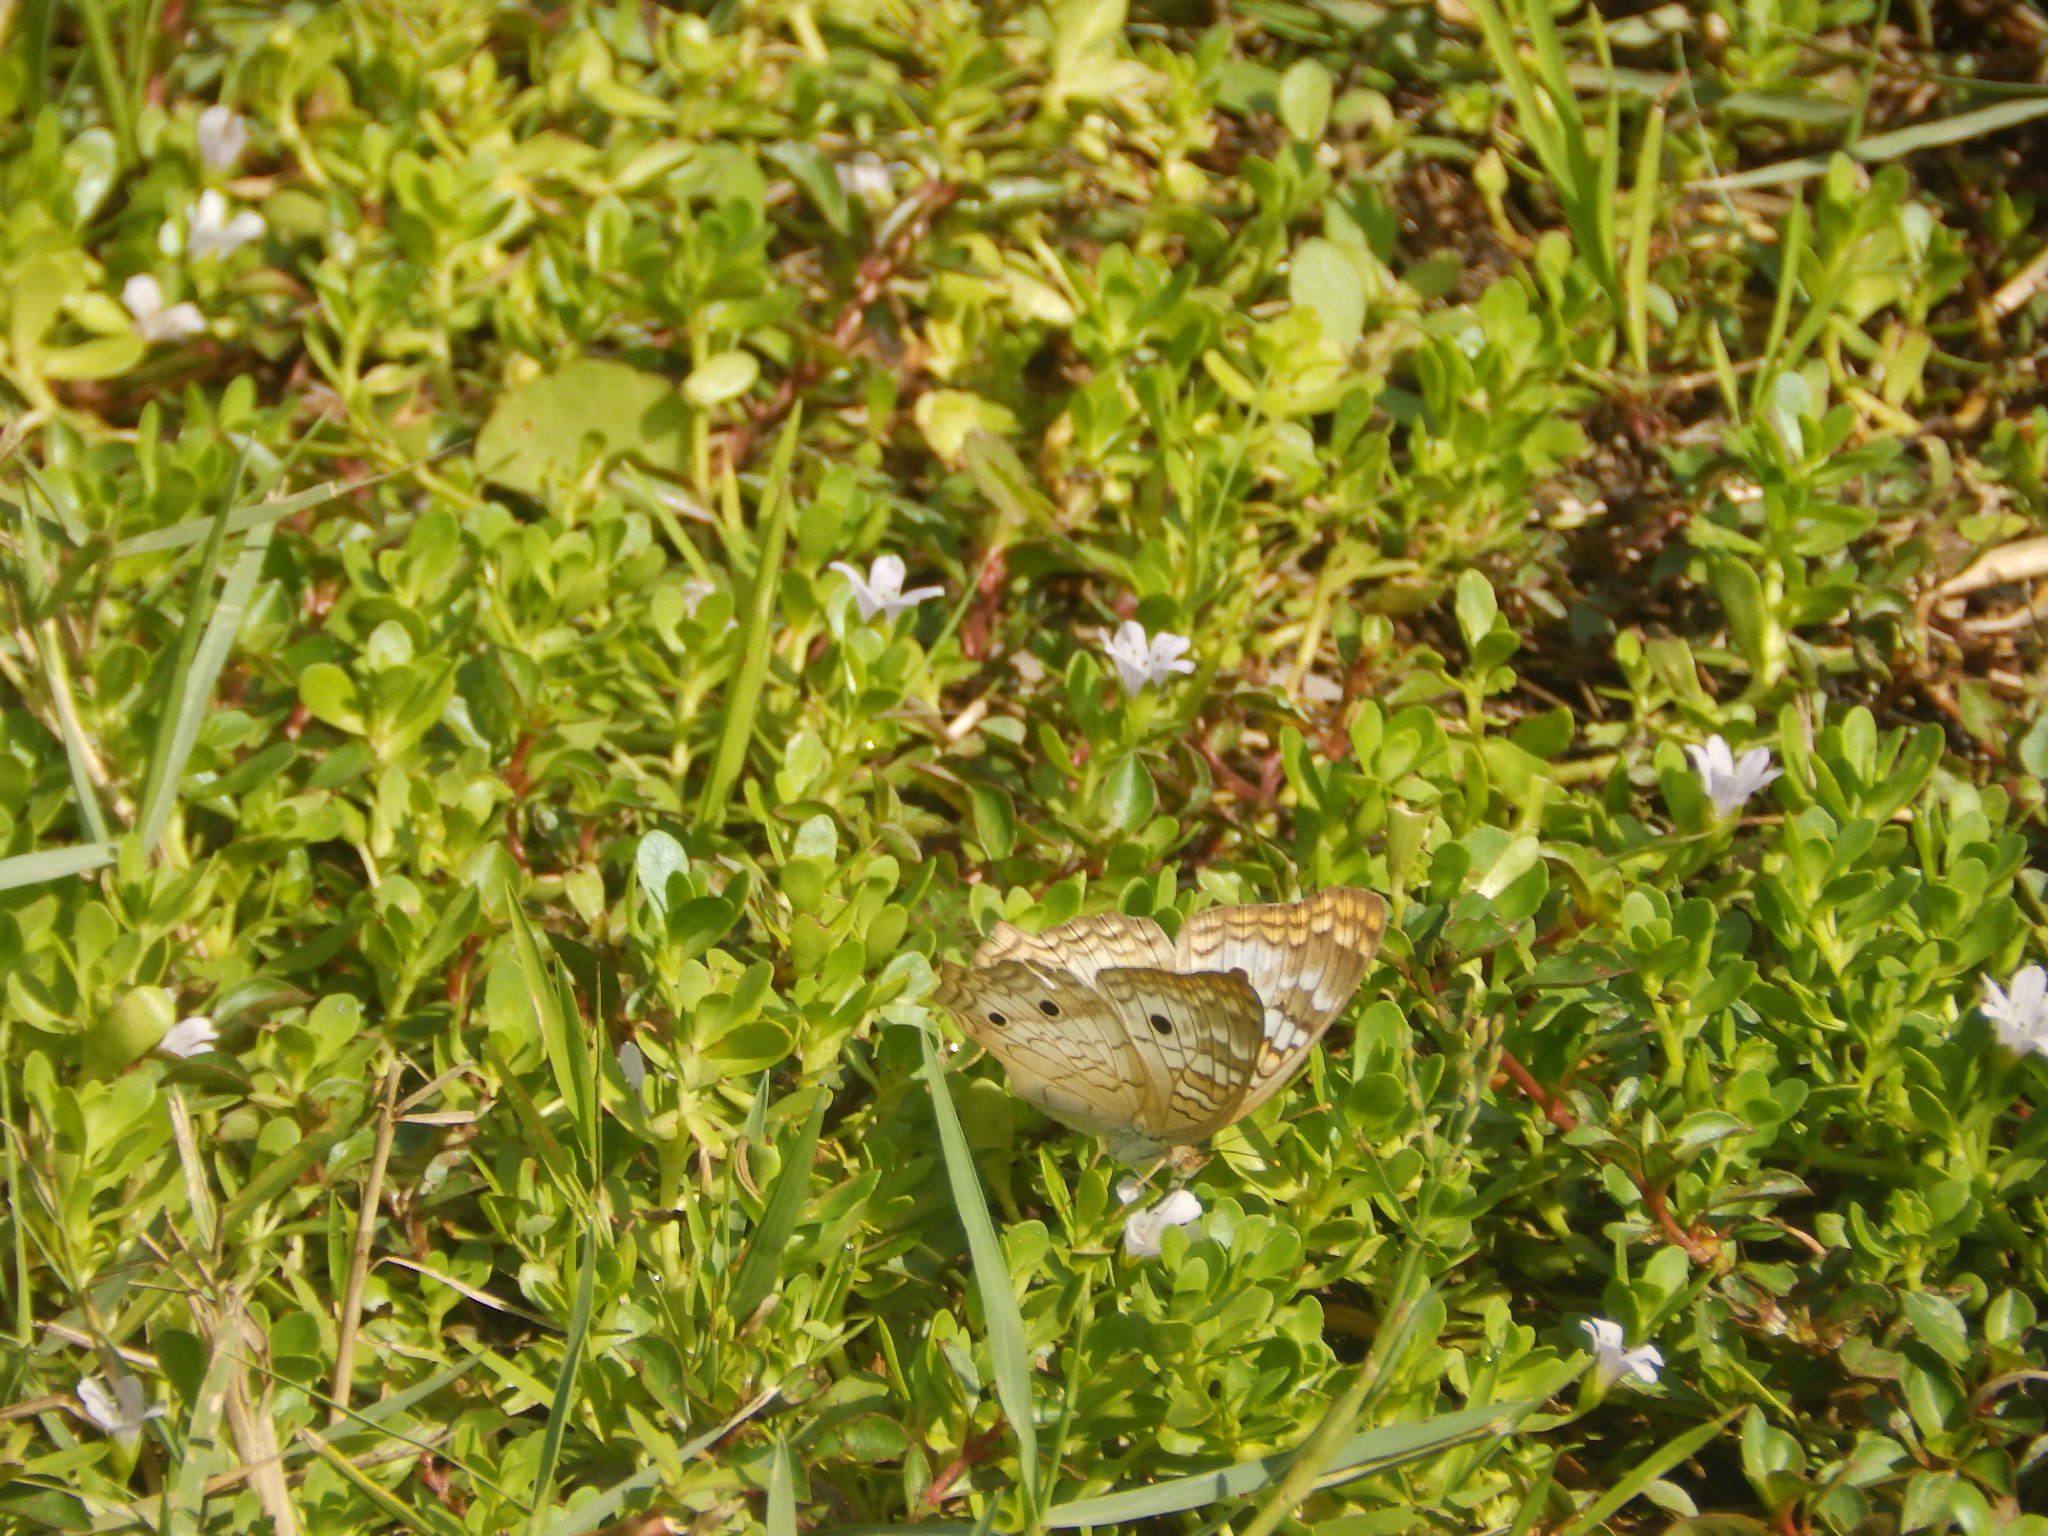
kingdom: Animalia
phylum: Arthropoda
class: Insecta
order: Lepidoptera
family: Nymphalidae
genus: Anartia
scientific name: Anartia jatrophae
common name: White peacock
